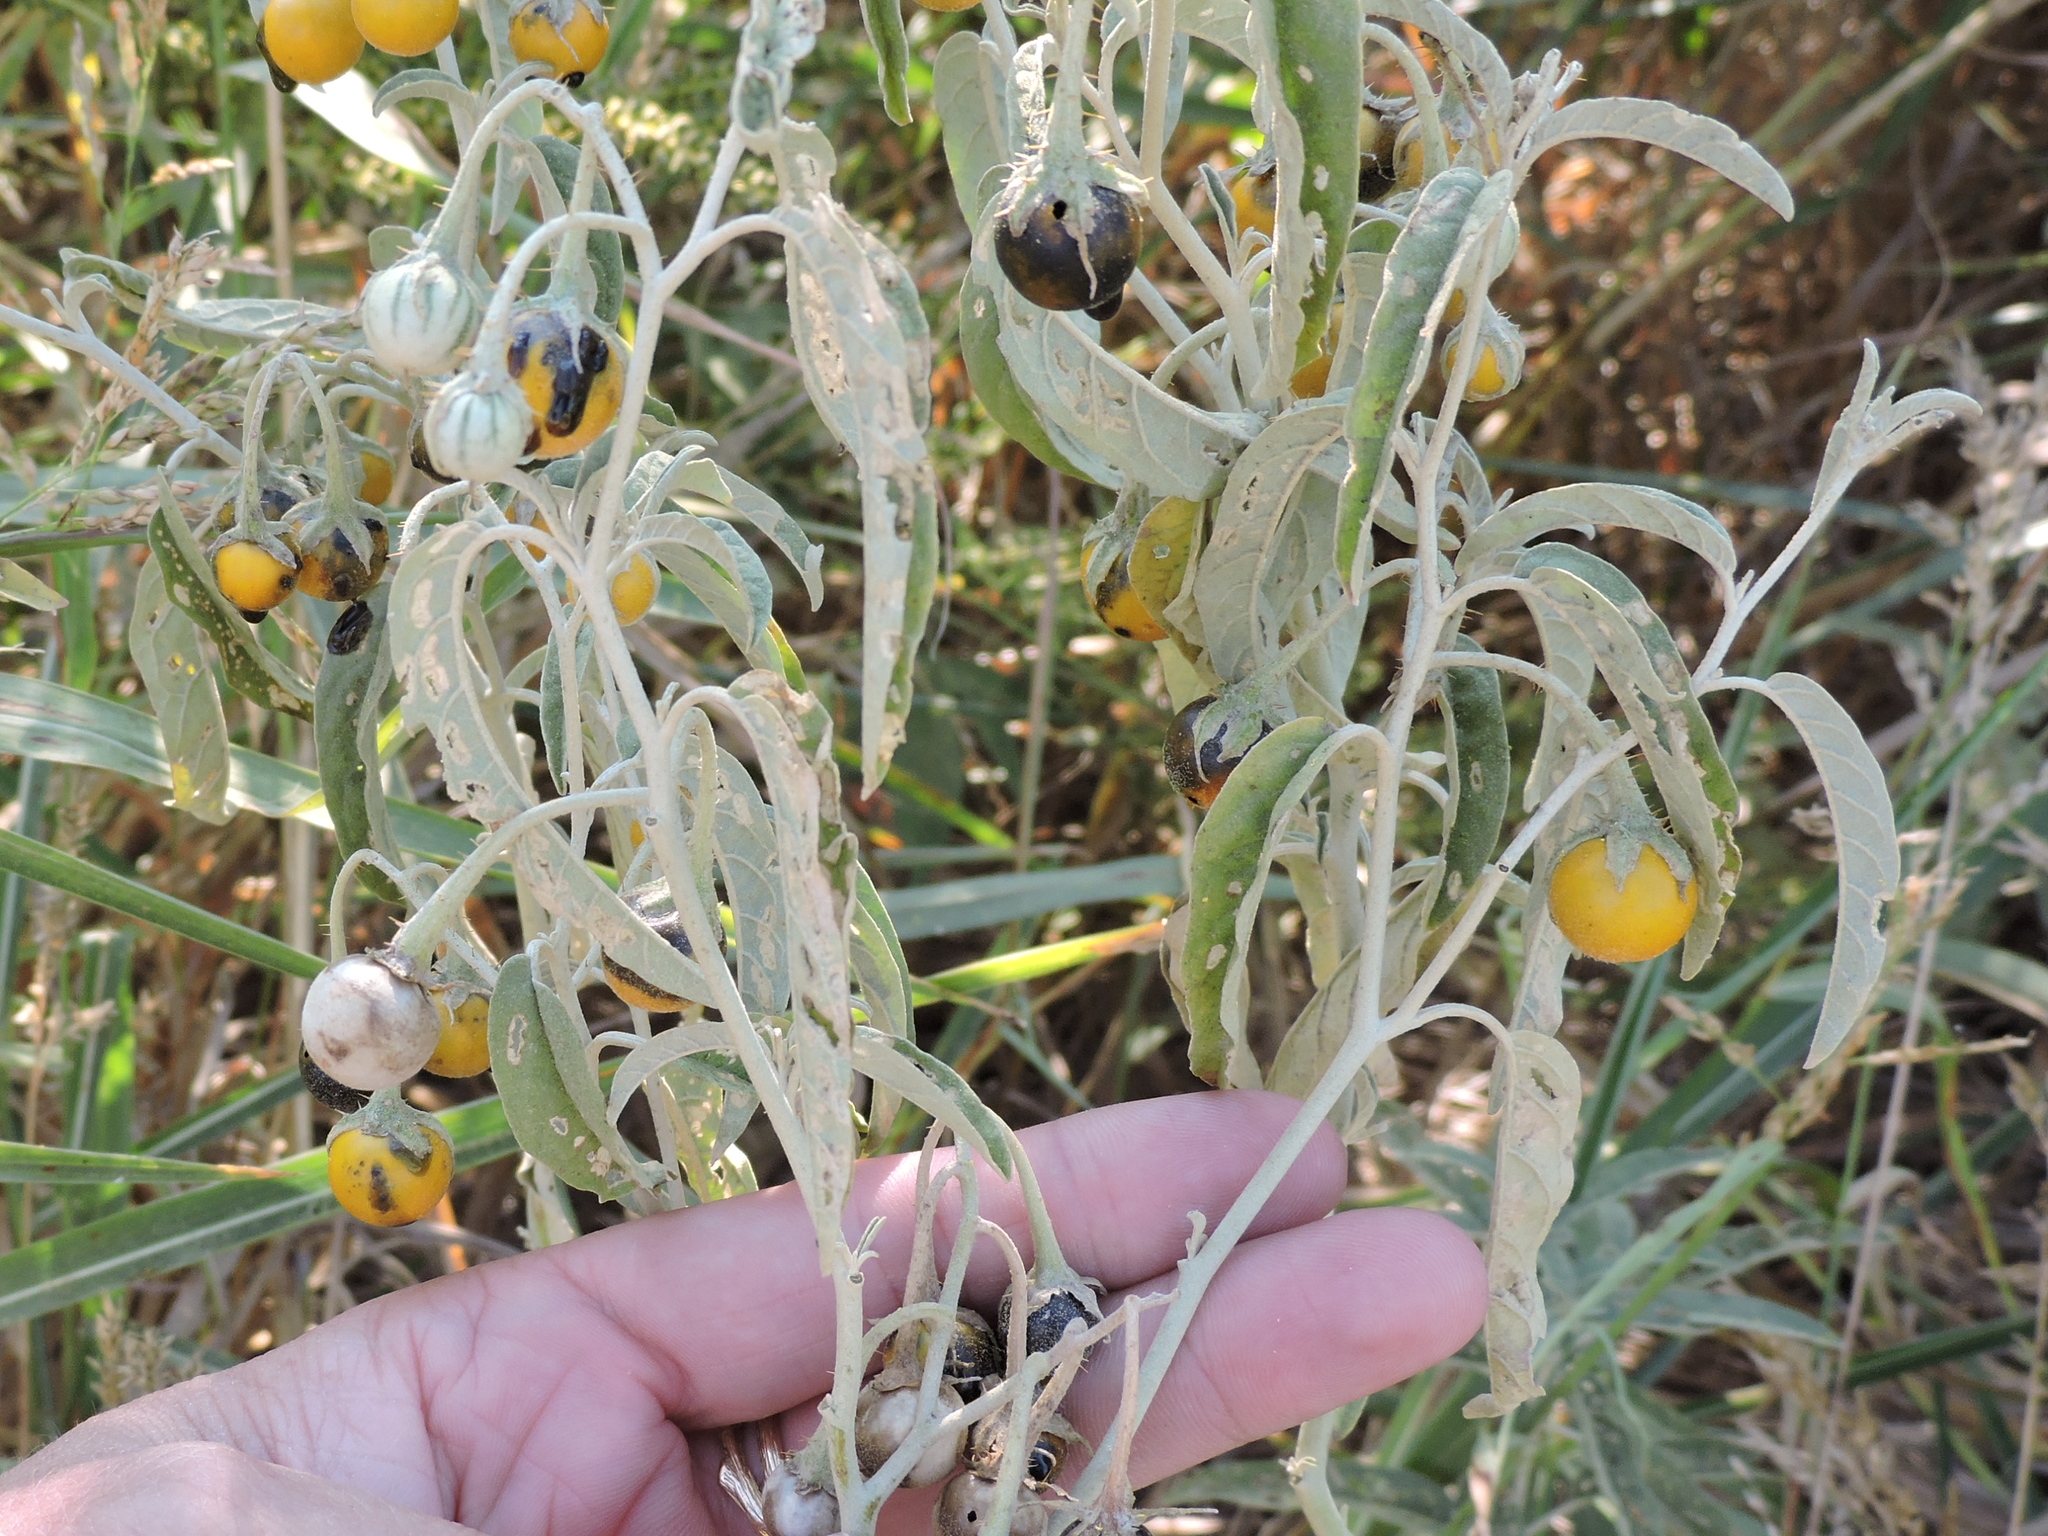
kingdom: Plantae
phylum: Tracheophyta
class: Magnoliopsida
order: Solanales
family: Solanaceae
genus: Solanum
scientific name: Solanum elaeagnifolium
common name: Silverleaf nightshade
